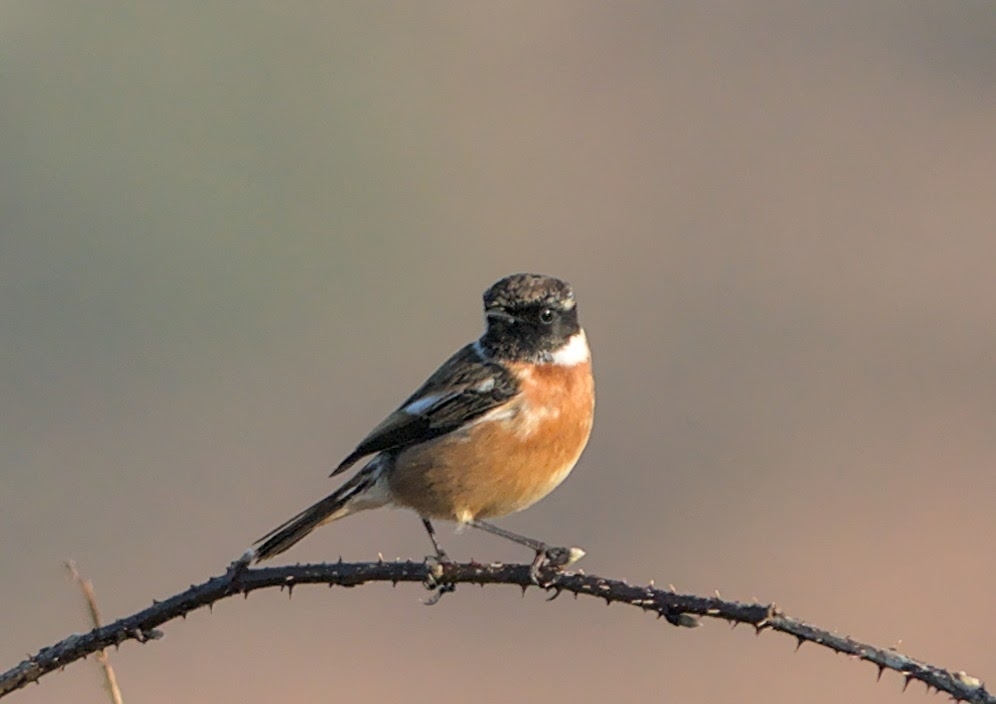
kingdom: Animalia
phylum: Chordata
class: Aves
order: Passeriformes
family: Muscicapidae
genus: Saxicola
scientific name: Saxicola rubicola
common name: European stonechat
